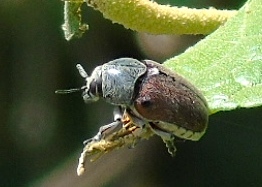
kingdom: Animalia
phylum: Arthropoda
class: Insecta
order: Coleoptera
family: Chrysomelidae
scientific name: Chrysomelidae
